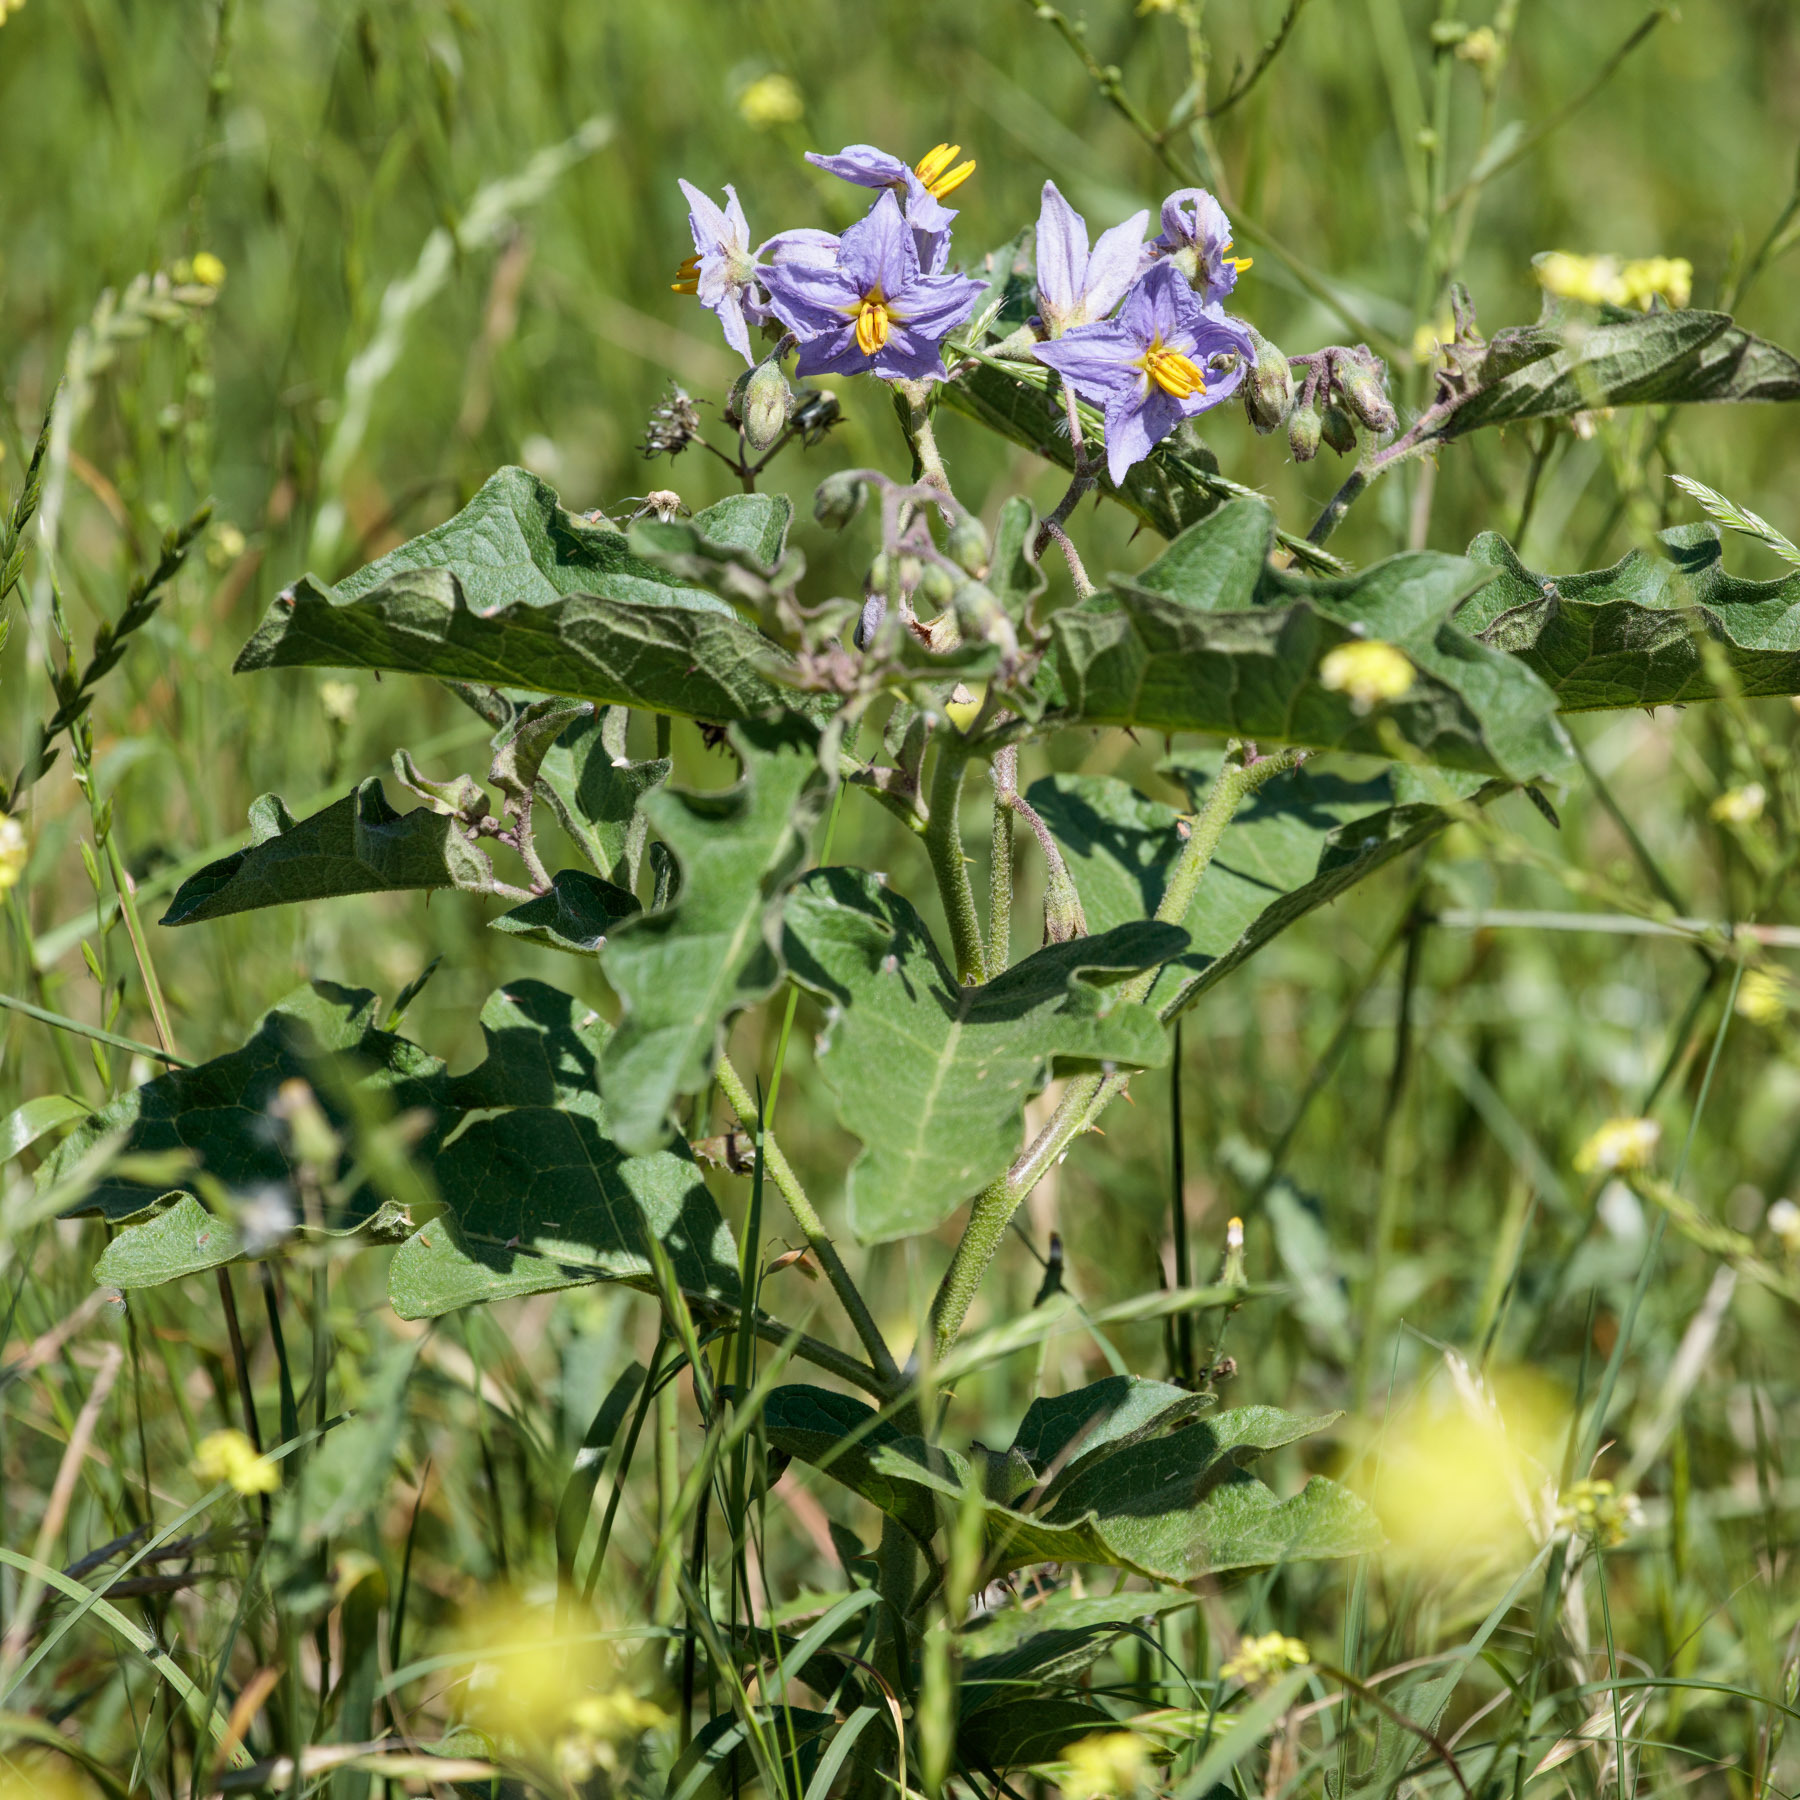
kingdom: Plantae
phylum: Tracheophyta
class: Magnoliopsida
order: Solanales
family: Solanaceae
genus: Solanum
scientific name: Solanum dimidiatum
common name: Carolina horse-nettle
